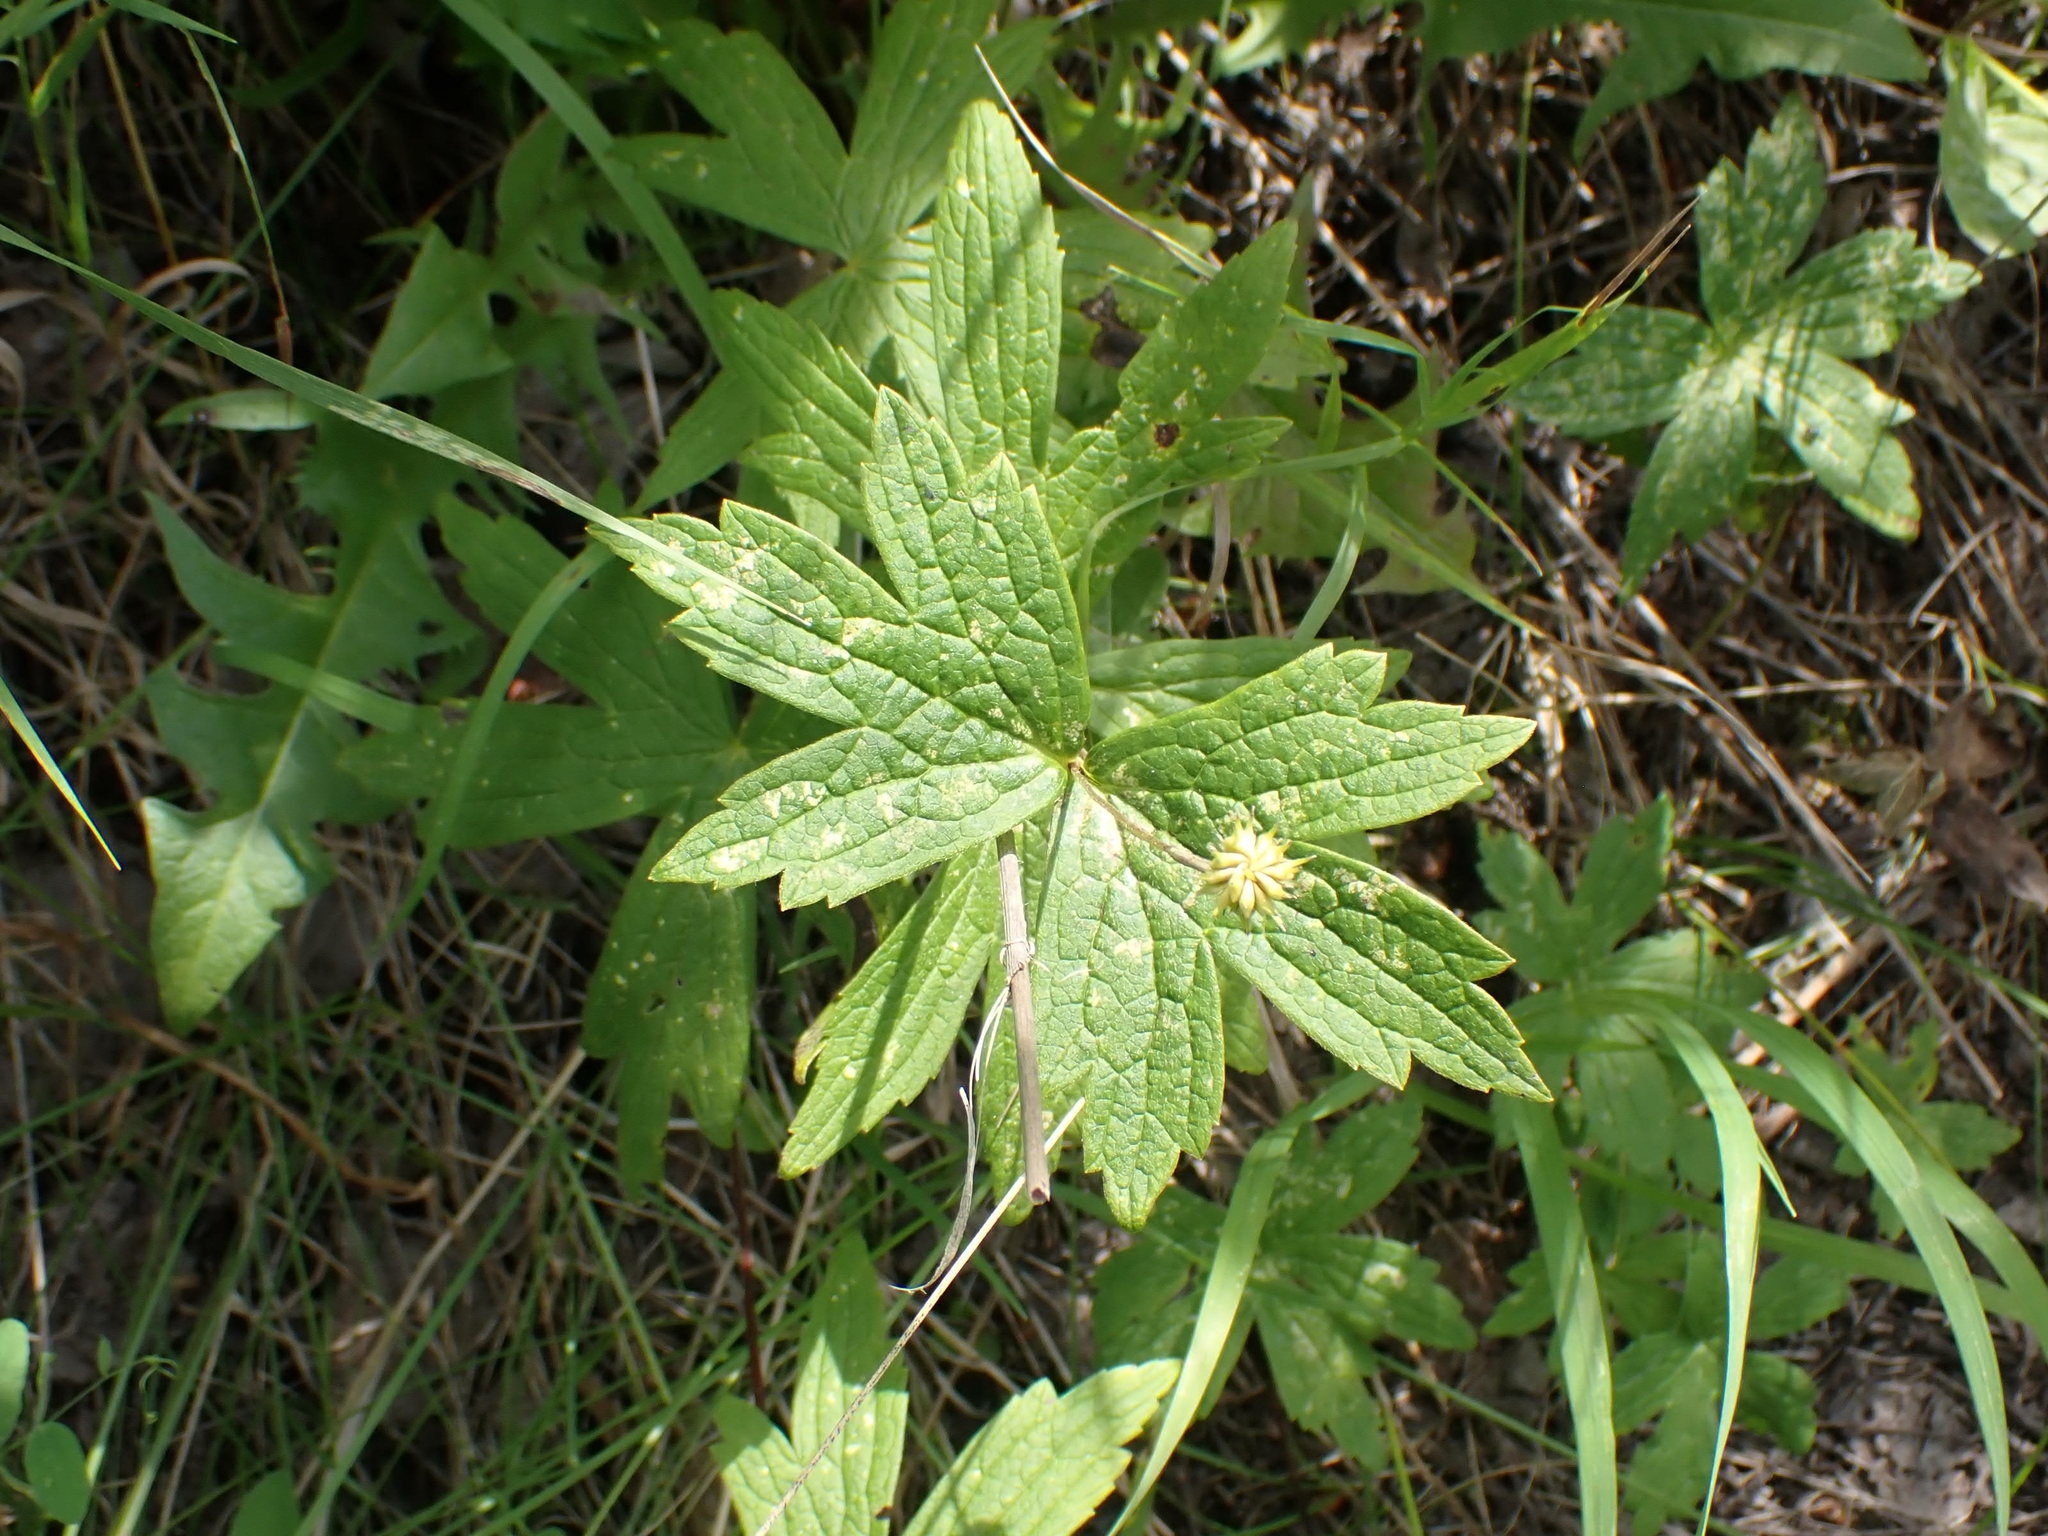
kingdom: Plantae
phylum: Tracheophyta
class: Magnoliopsida
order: Ranunculales
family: Ranunculaceae
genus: Anemonastrum
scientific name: Anemonastrum canadense
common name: Canada anemone
